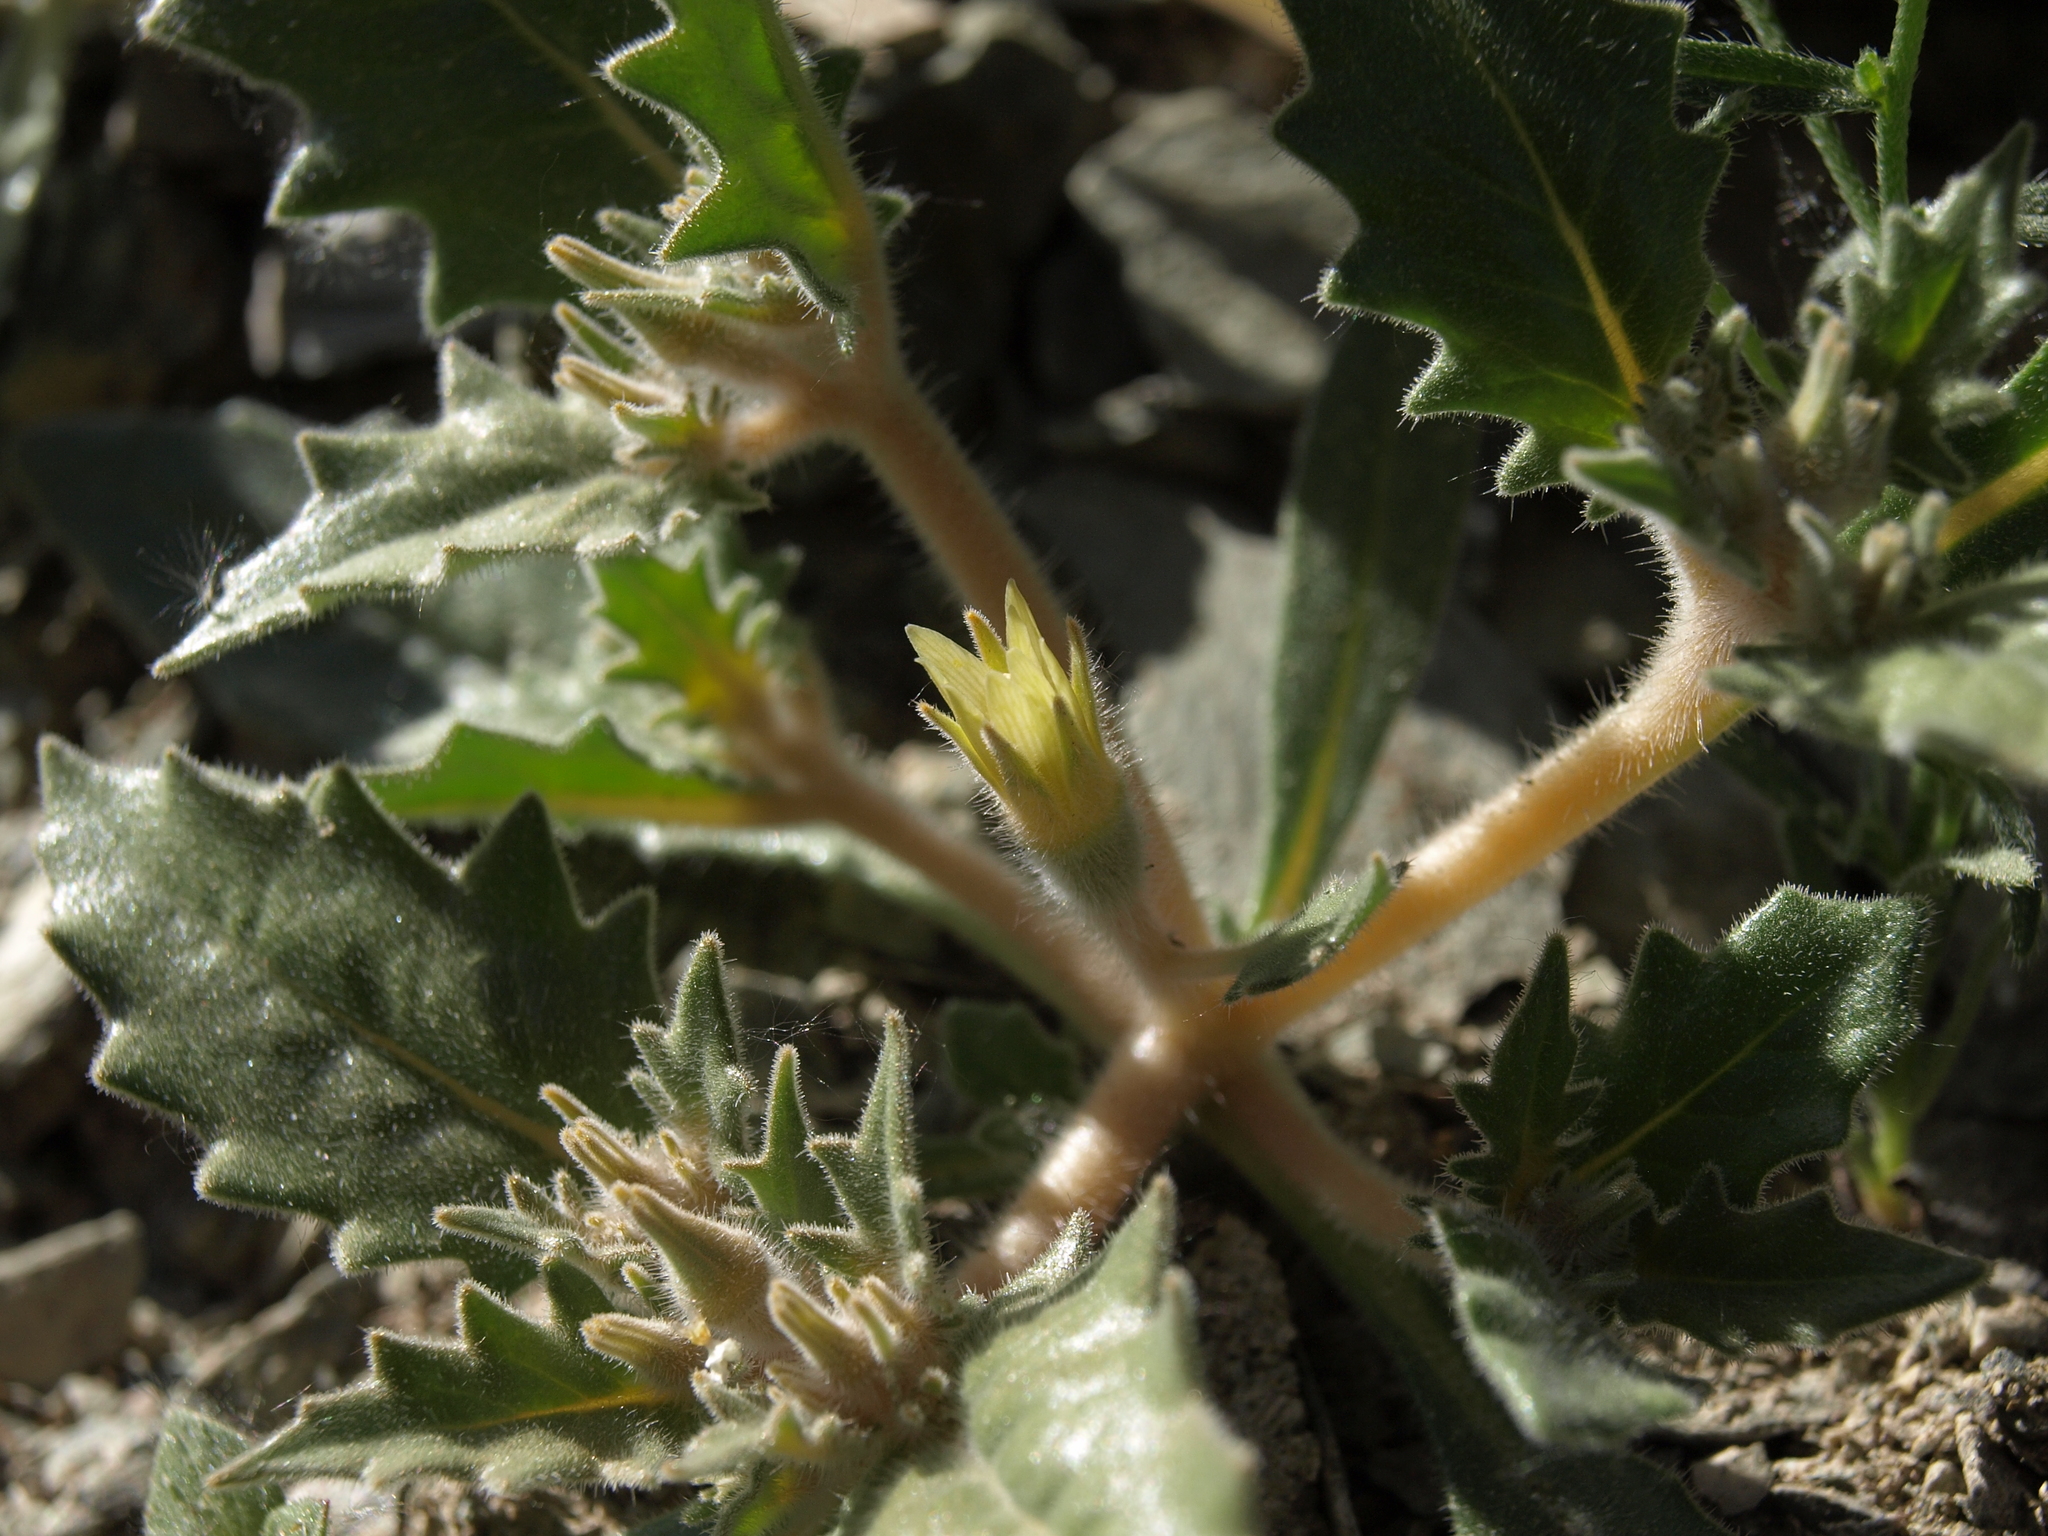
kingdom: Plantae
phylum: Tracheophyta
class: Magnoliopsida
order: Cornales
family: Loasaceae
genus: Mentzelia
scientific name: Mentzelia reflexa
